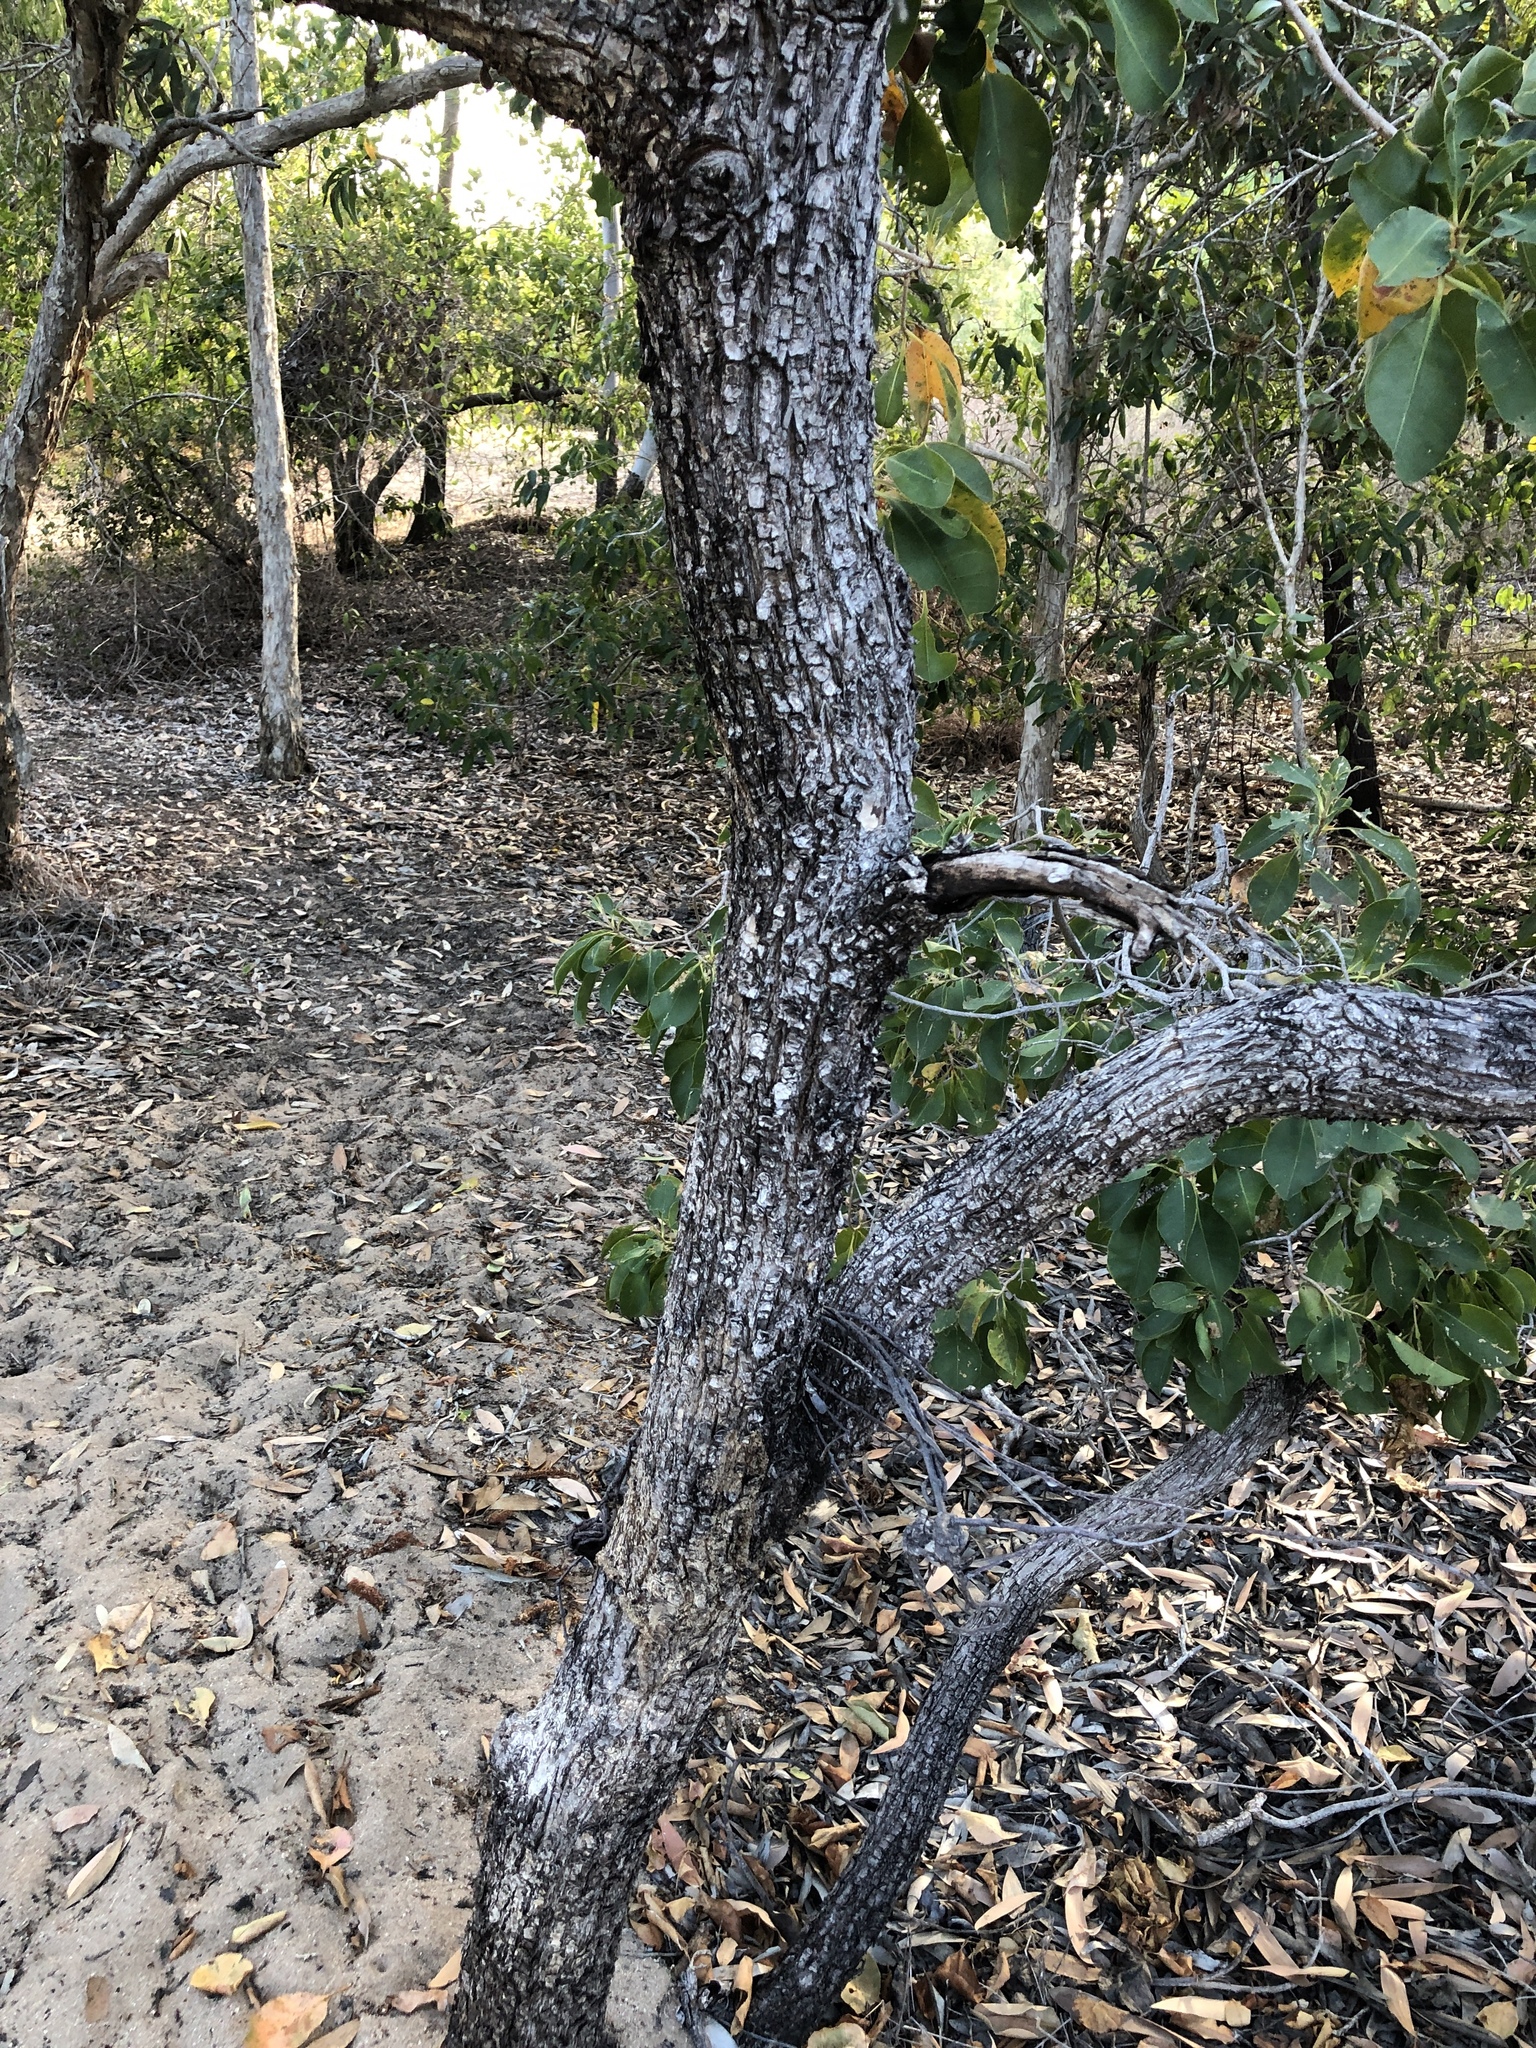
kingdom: Plantae
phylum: Tracheophyta
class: Magnoliopsida
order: Ericales
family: Lecythidaceae
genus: Planchonia
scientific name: Planchonia careya
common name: Cockatoo-apple
